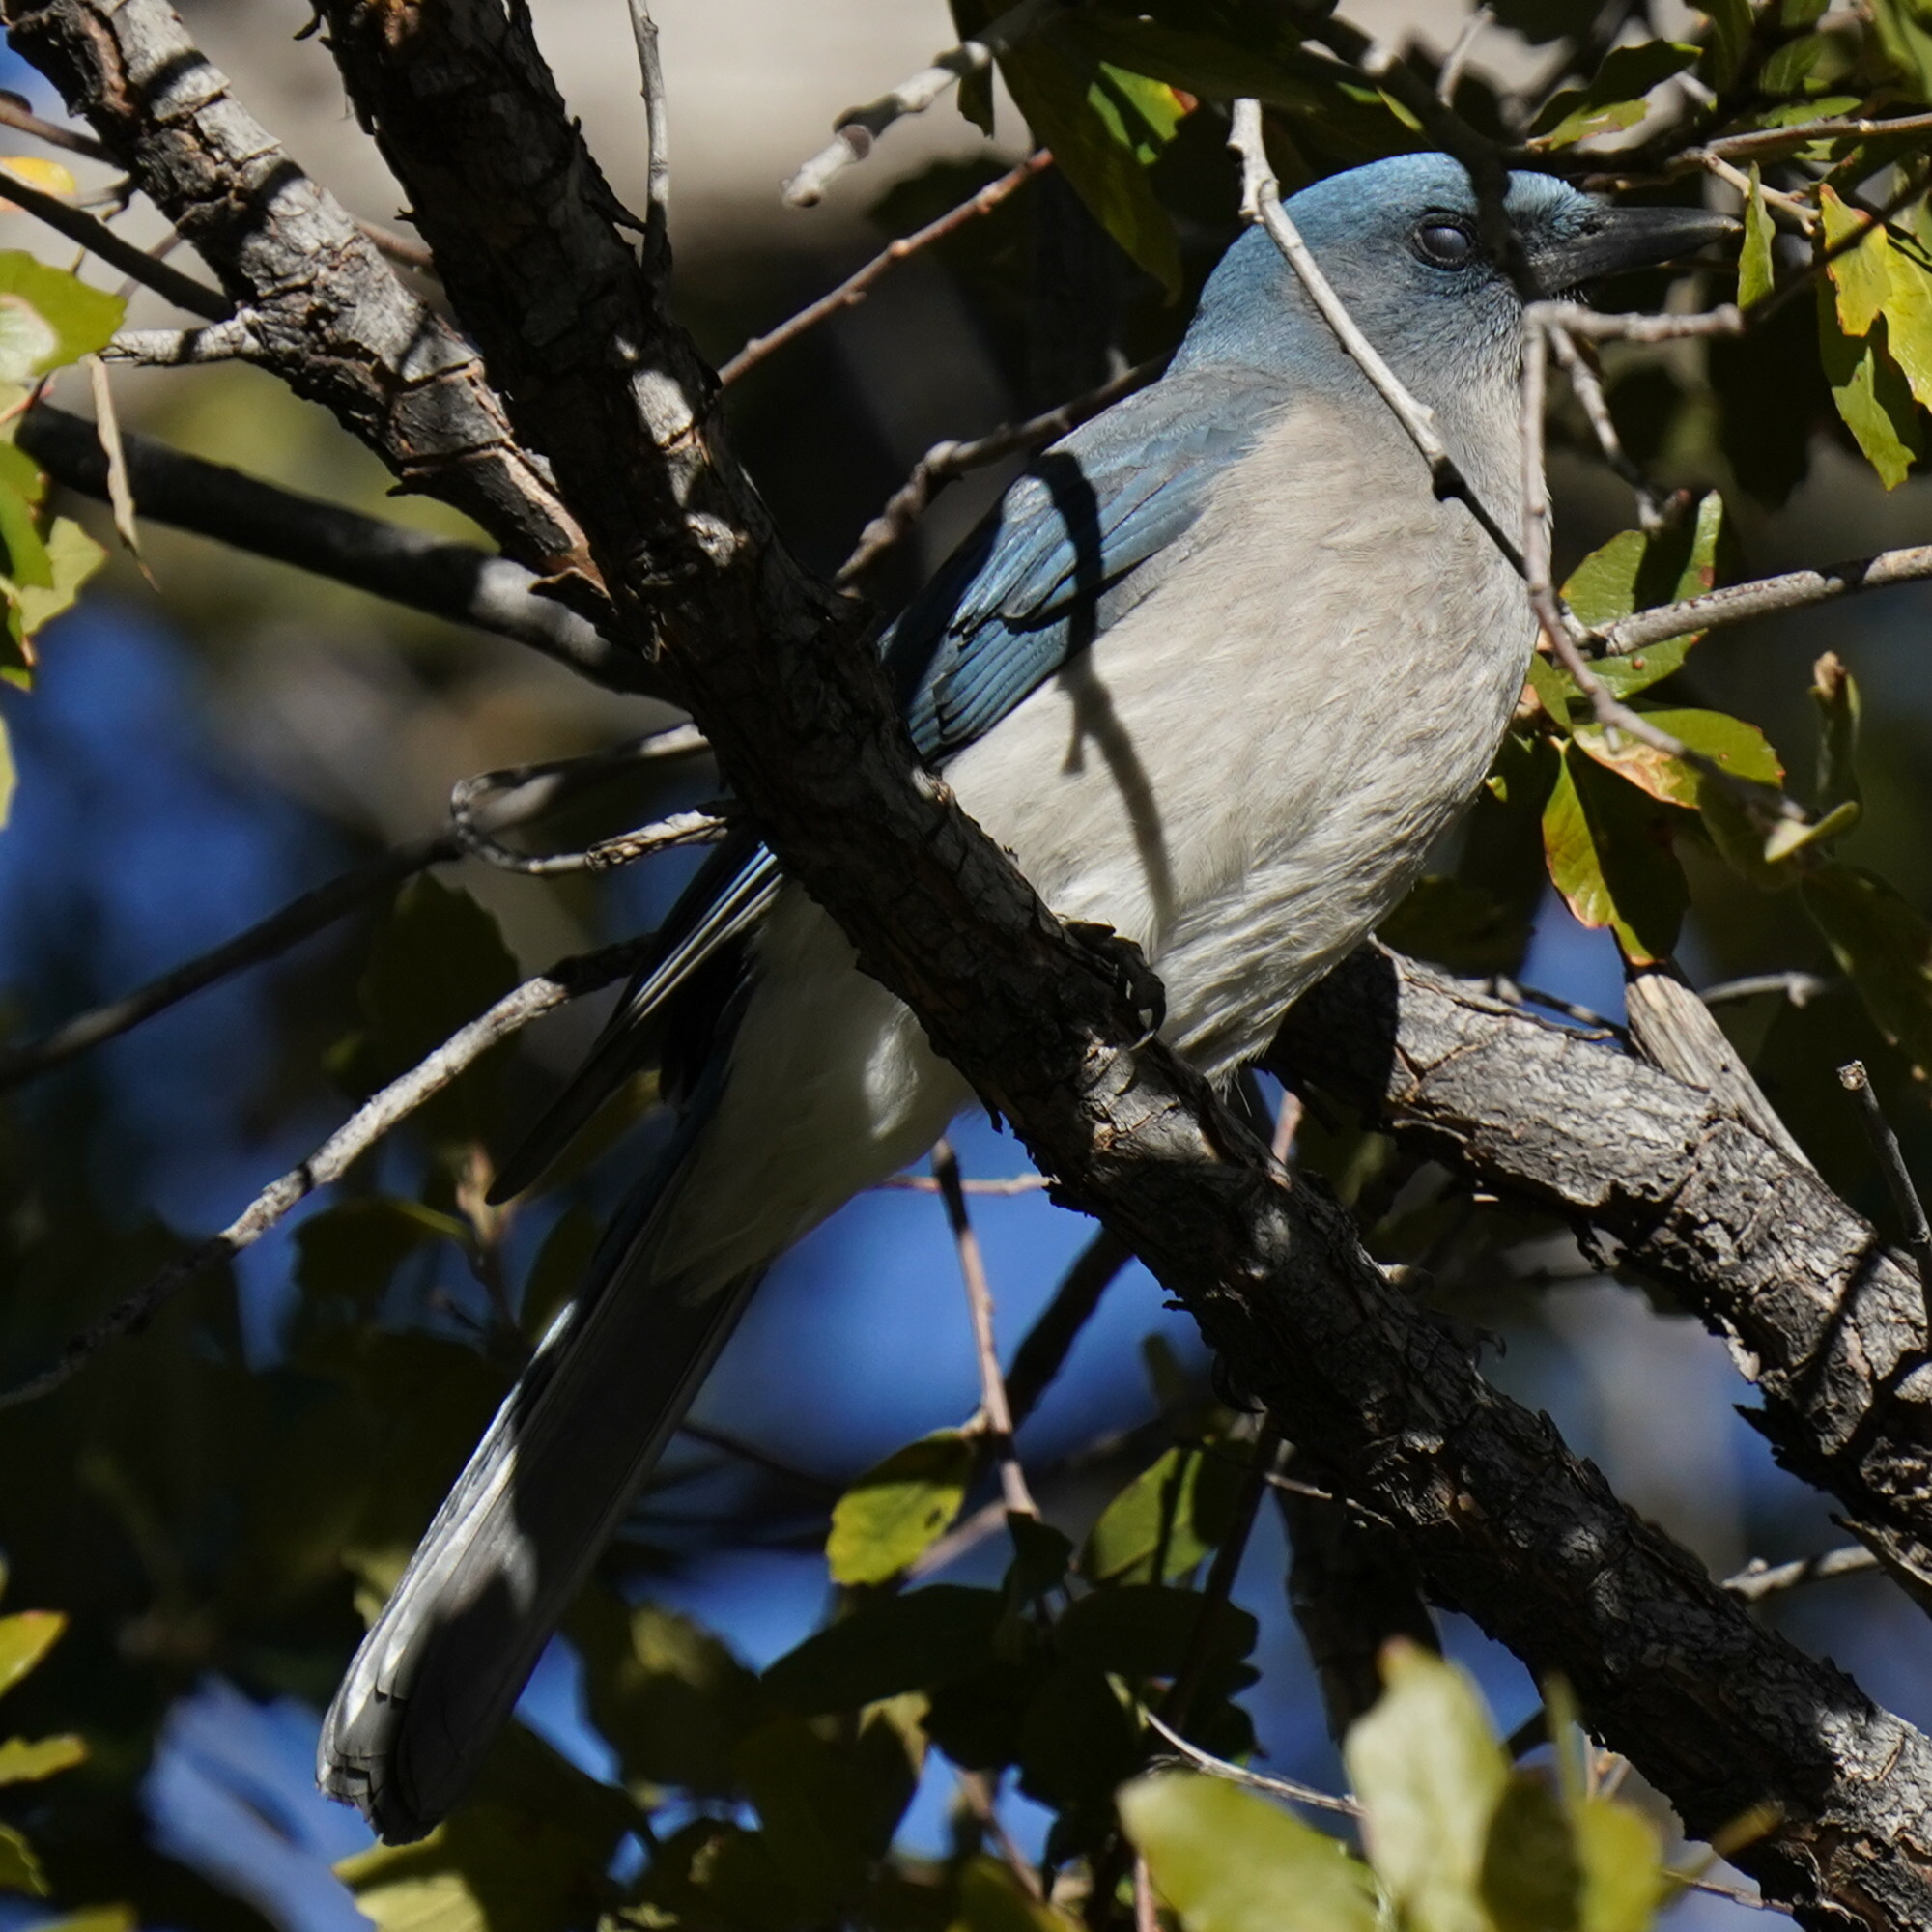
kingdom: Animalia
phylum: Chordata
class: Aves
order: Passeriformes
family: Corvidae
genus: Aphelocoma
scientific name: Aphelocoma wollweberi
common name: Mexican jay
